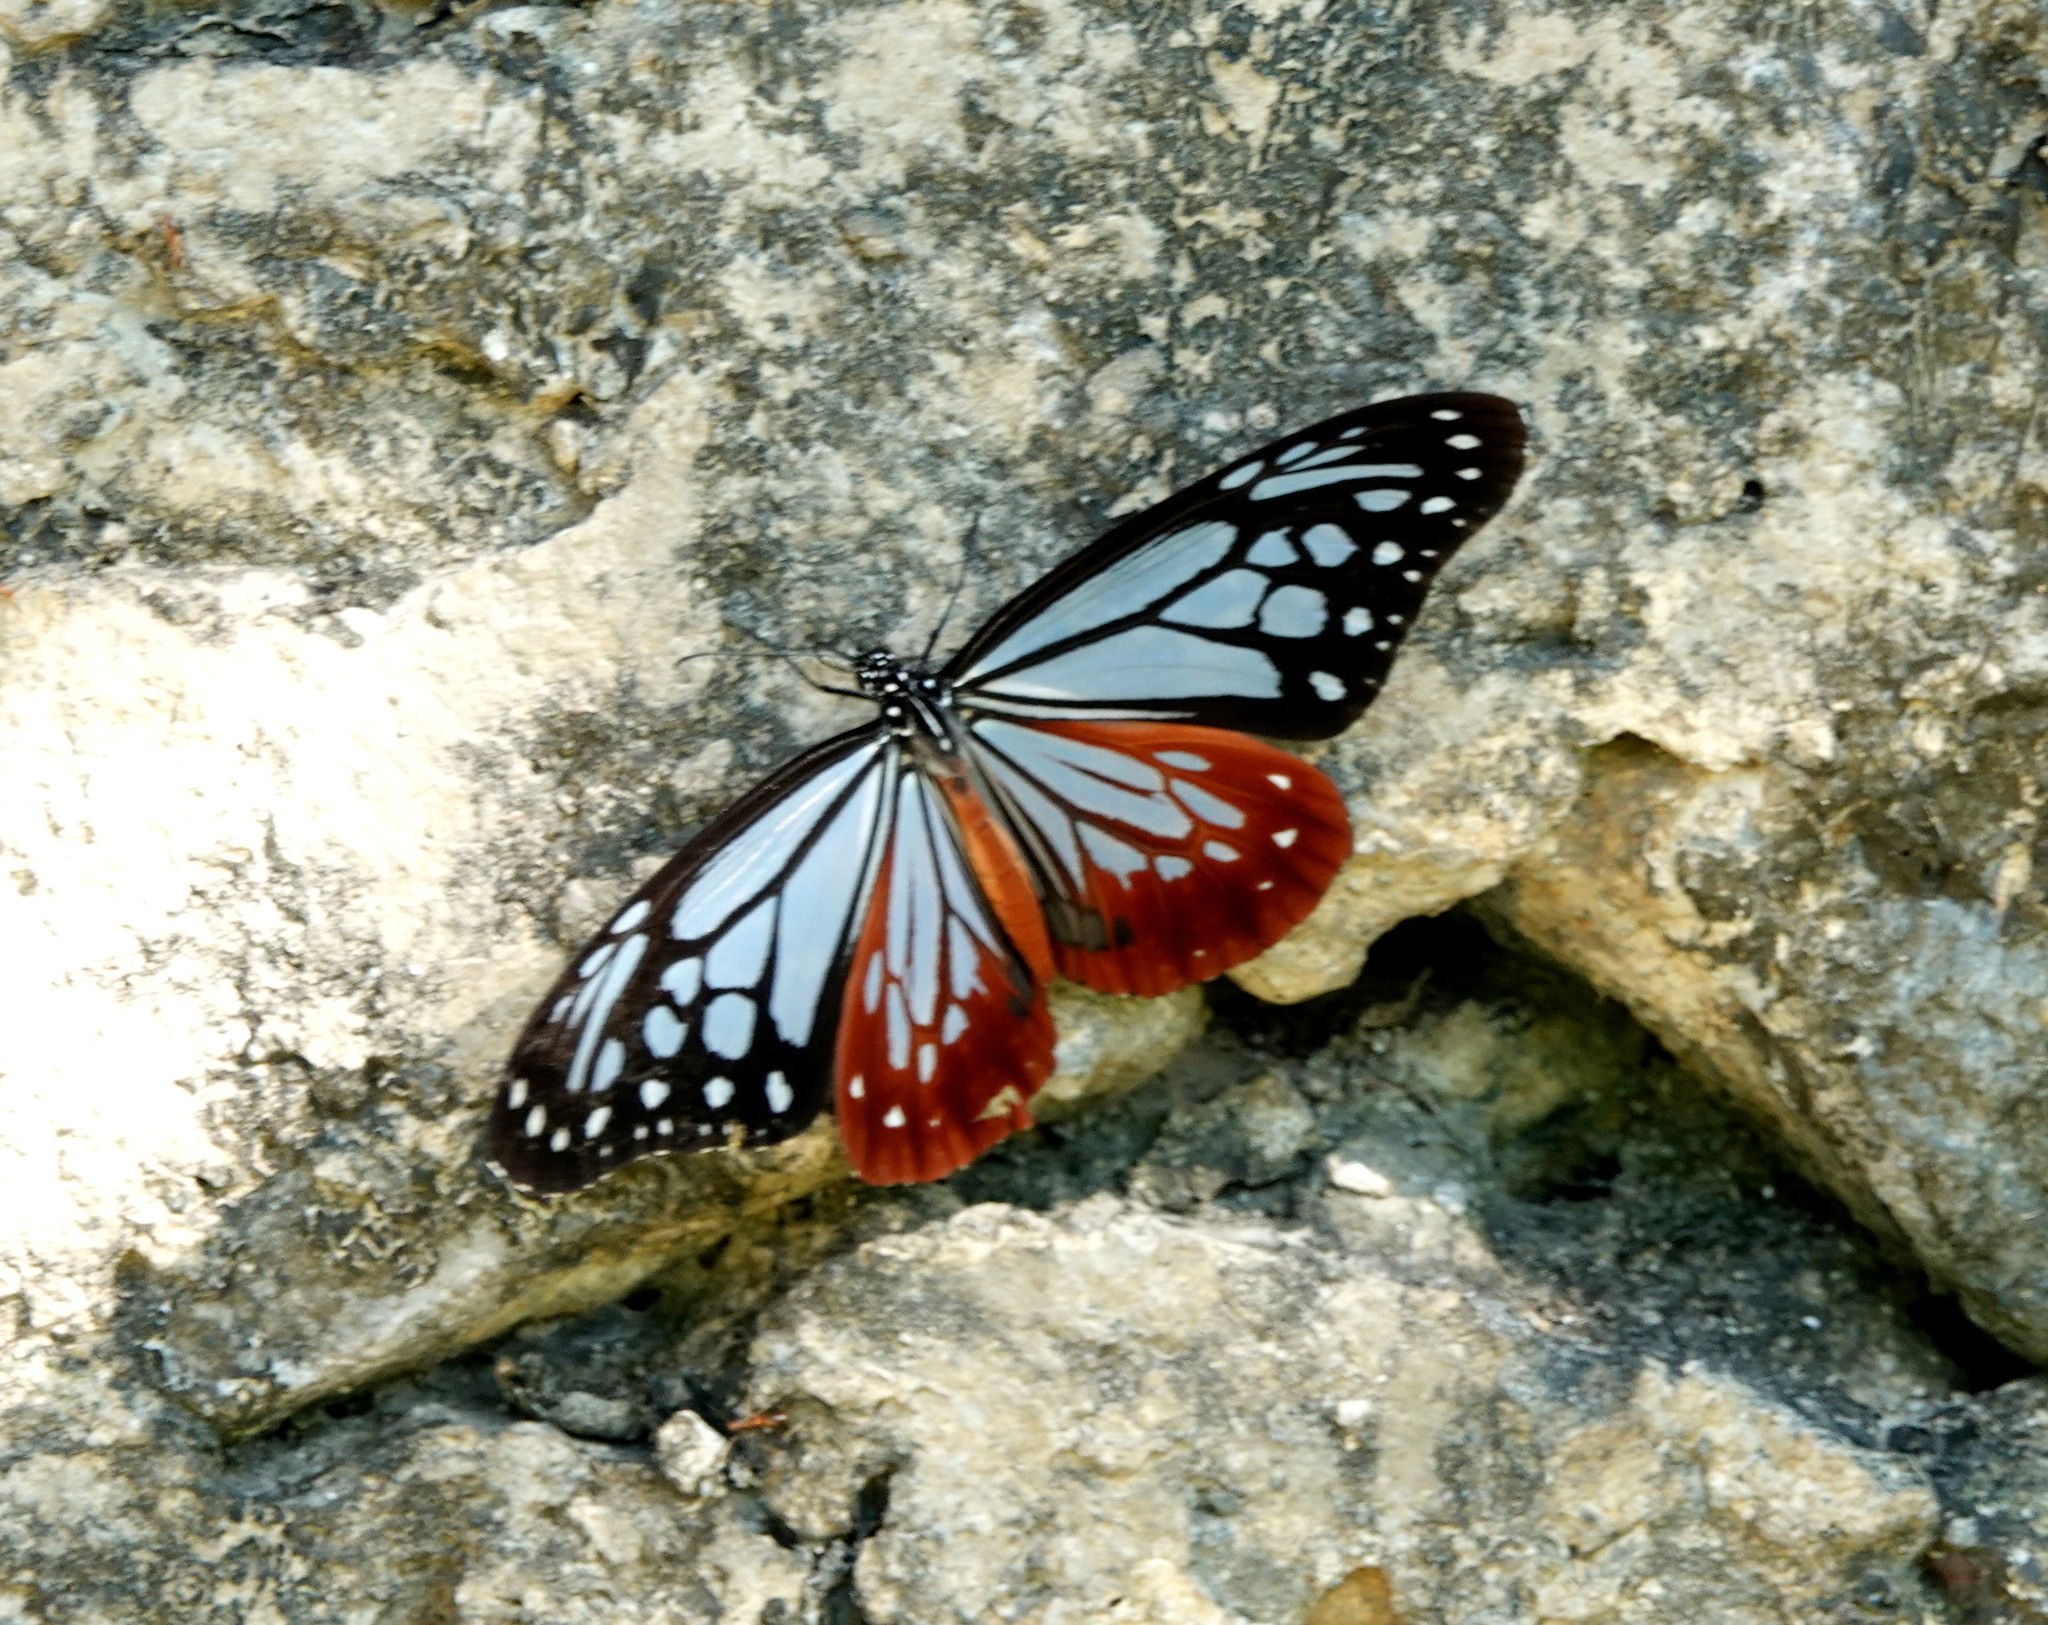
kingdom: Animalia
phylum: Arthropoda
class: Insecta
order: Lepidoptera
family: Nymphalidae
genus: Parantica
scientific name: Parantica sita
